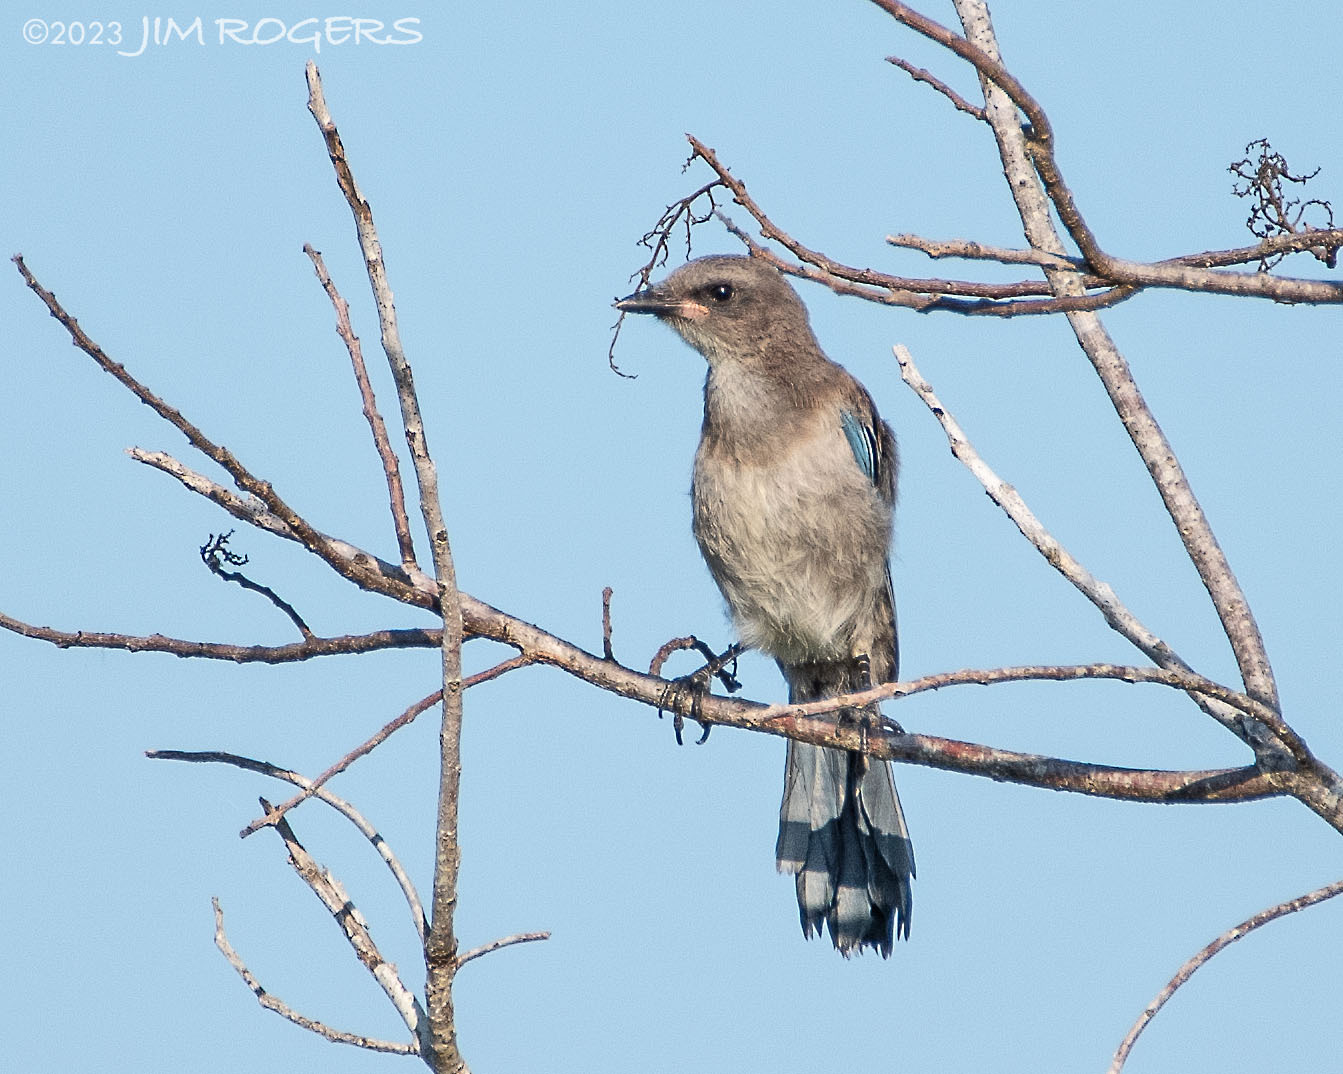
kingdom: Animalia
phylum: Chordata
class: Aves
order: Passeriformes
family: Corvidae
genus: Aphelocoma
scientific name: Aphelocoma coerulescens
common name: Florida scrub jay
